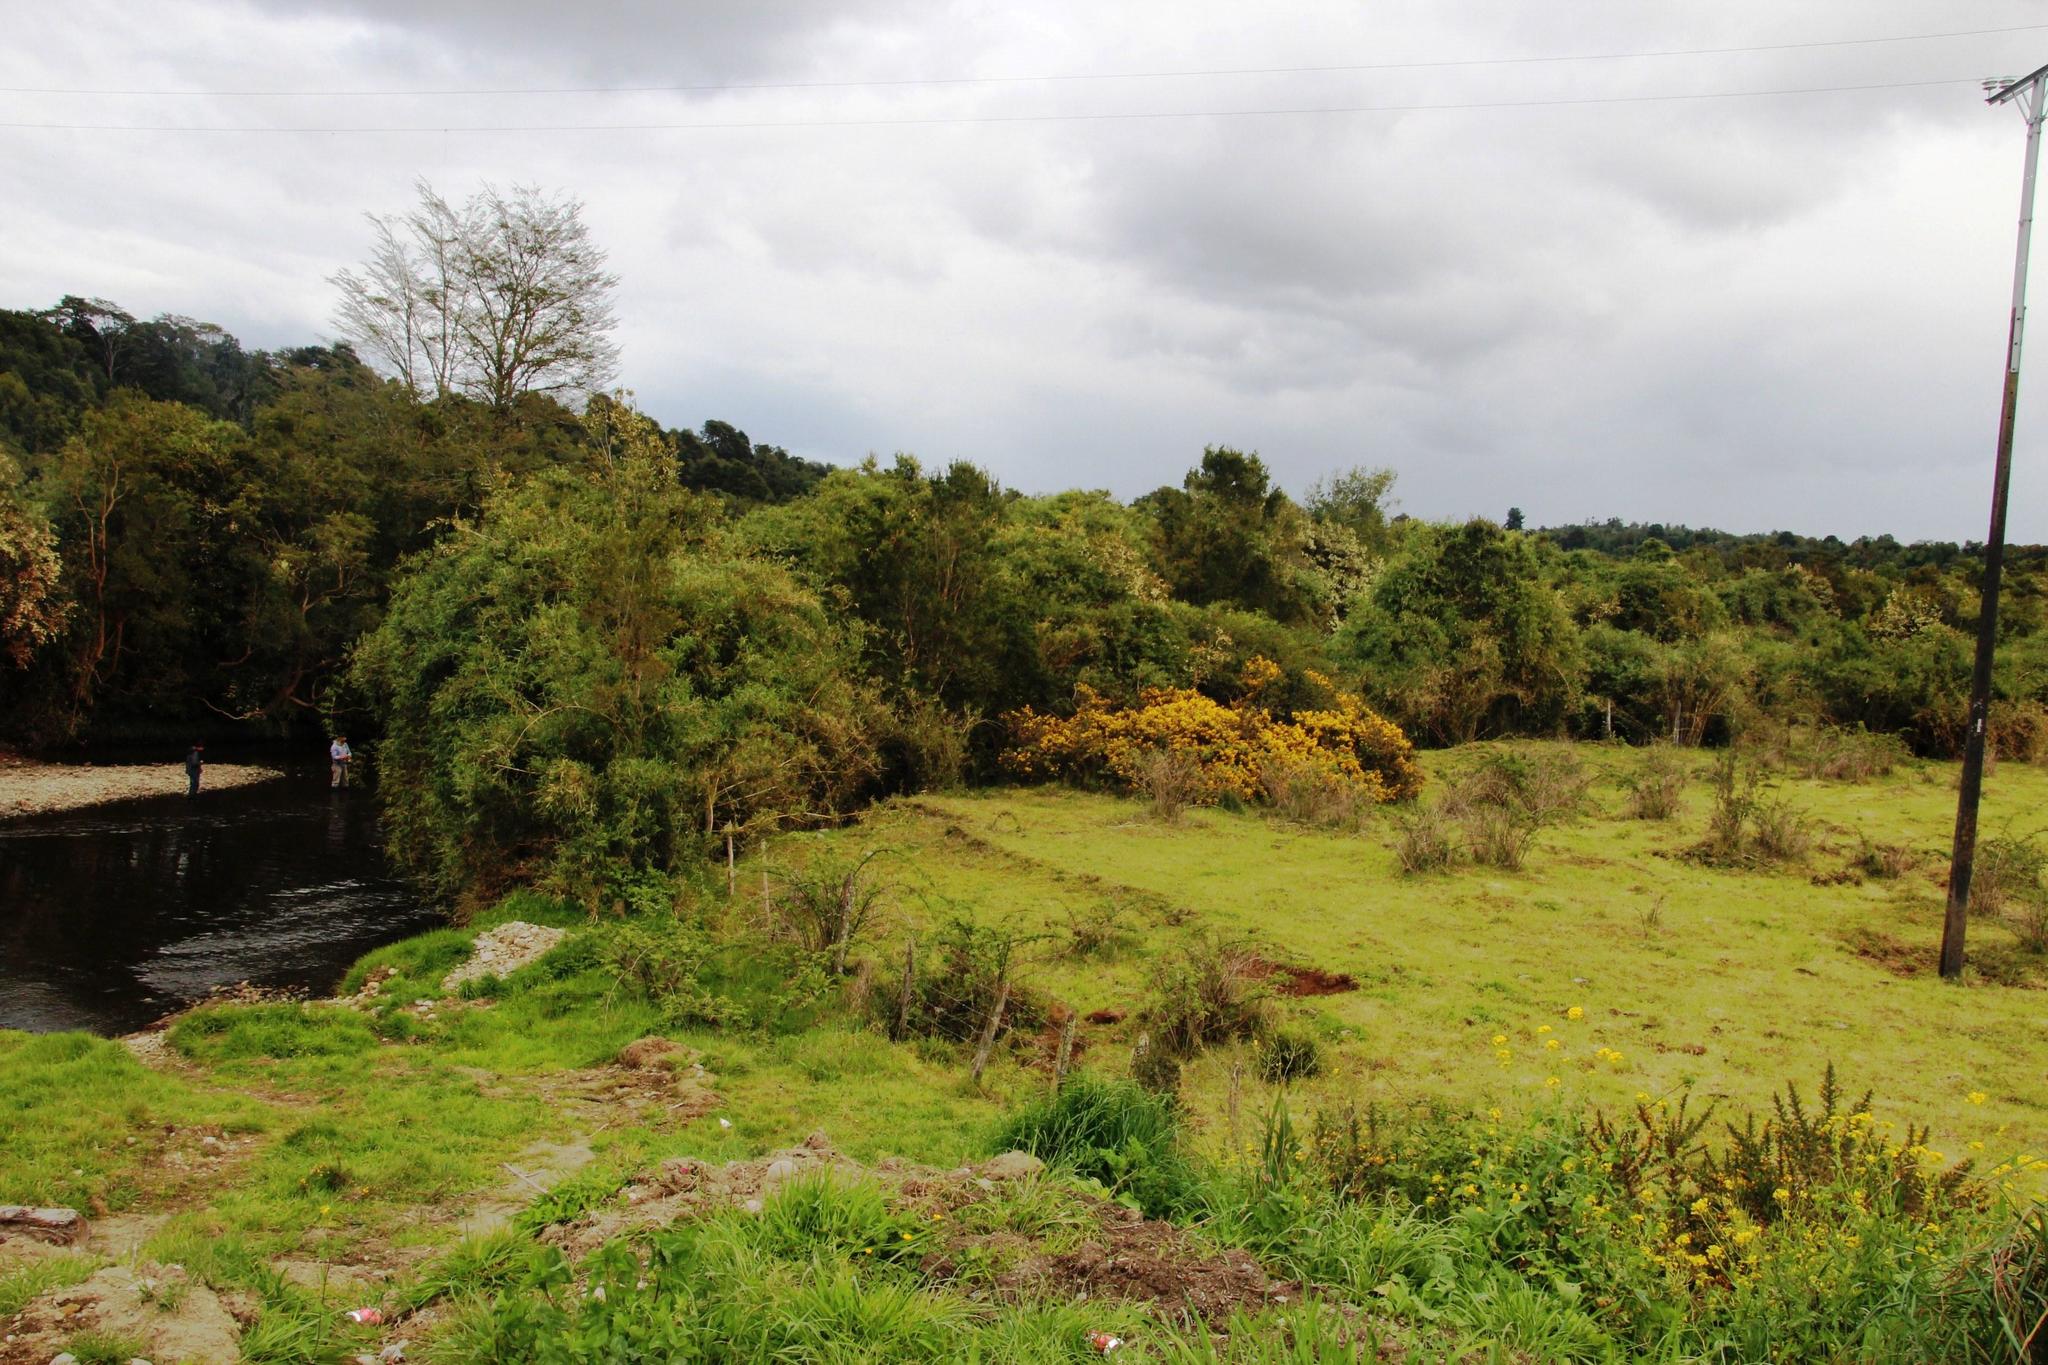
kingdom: Plantae
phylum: Tracheophyta
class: Magnoliopsida
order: Fabales
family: Fabaceae
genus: Ulex
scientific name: Ulex europaeus
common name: Common gorse
